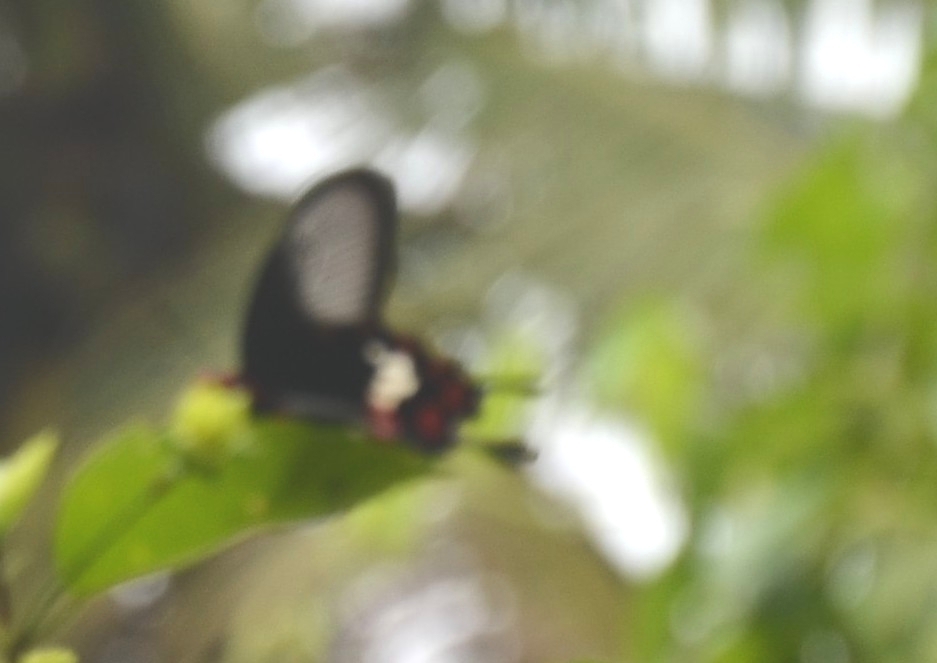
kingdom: Animalia
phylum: Arthropoda
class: Insecta
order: Lepidoptera
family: Papilionidae
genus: Pachliopta
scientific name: Pachliopta aristolochiae
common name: Common rose
